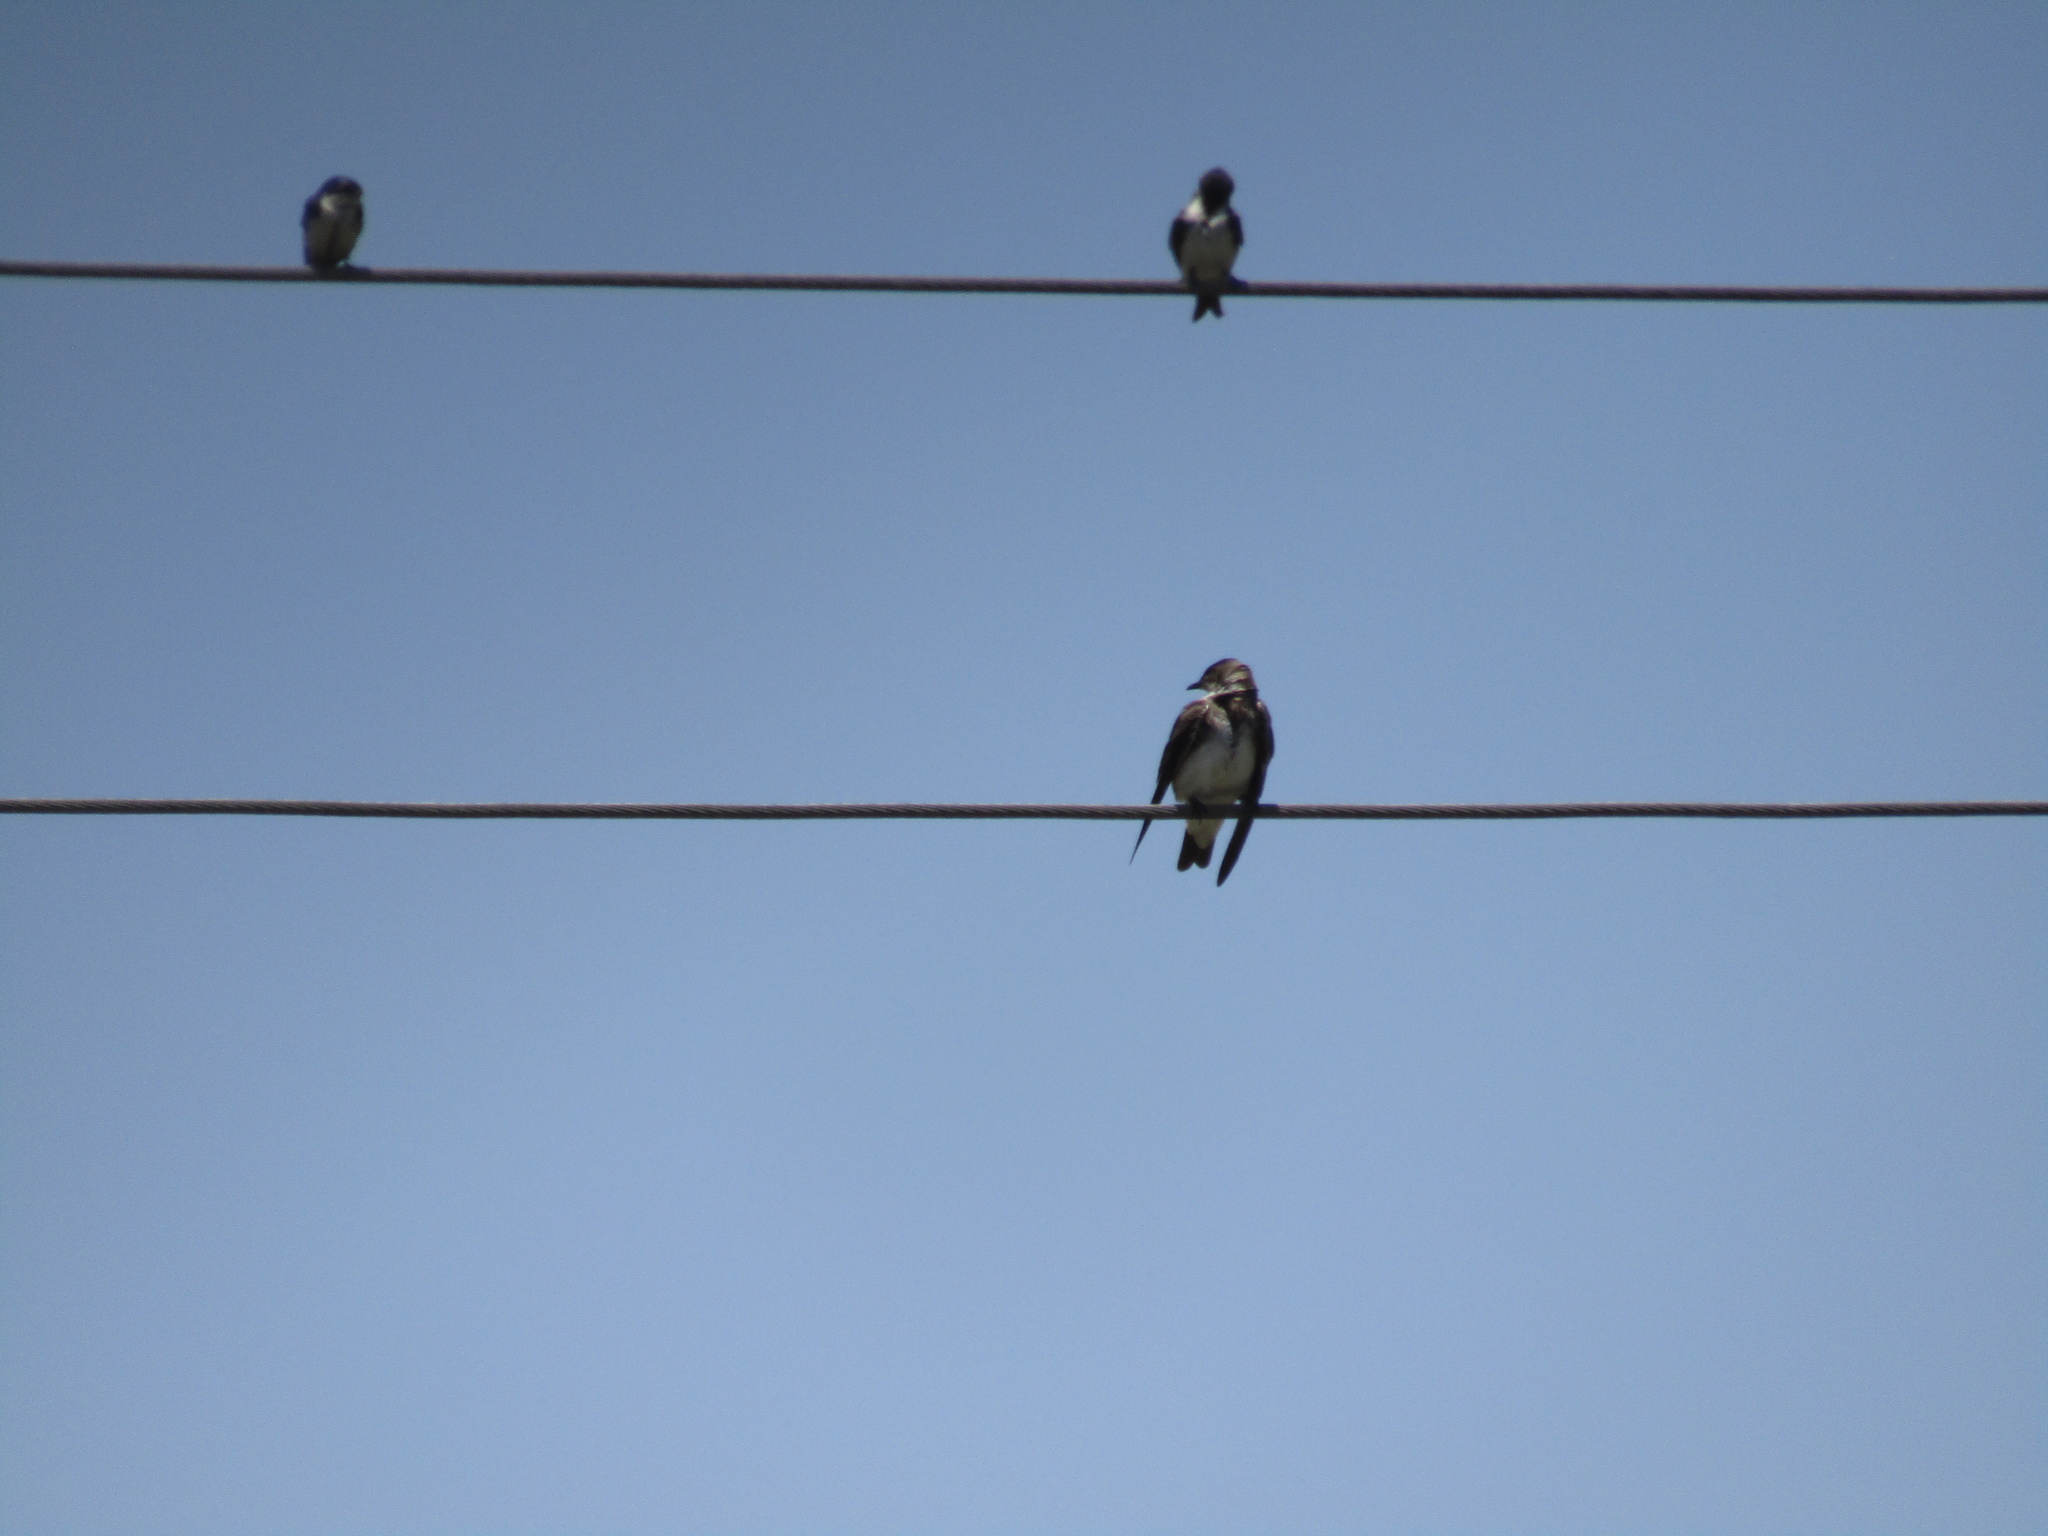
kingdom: Animalia
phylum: Chordata
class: Aves
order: Passeriformes
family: Hirundinidae
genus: Progne
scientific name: Progne tapera
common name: Brown-chested martin
